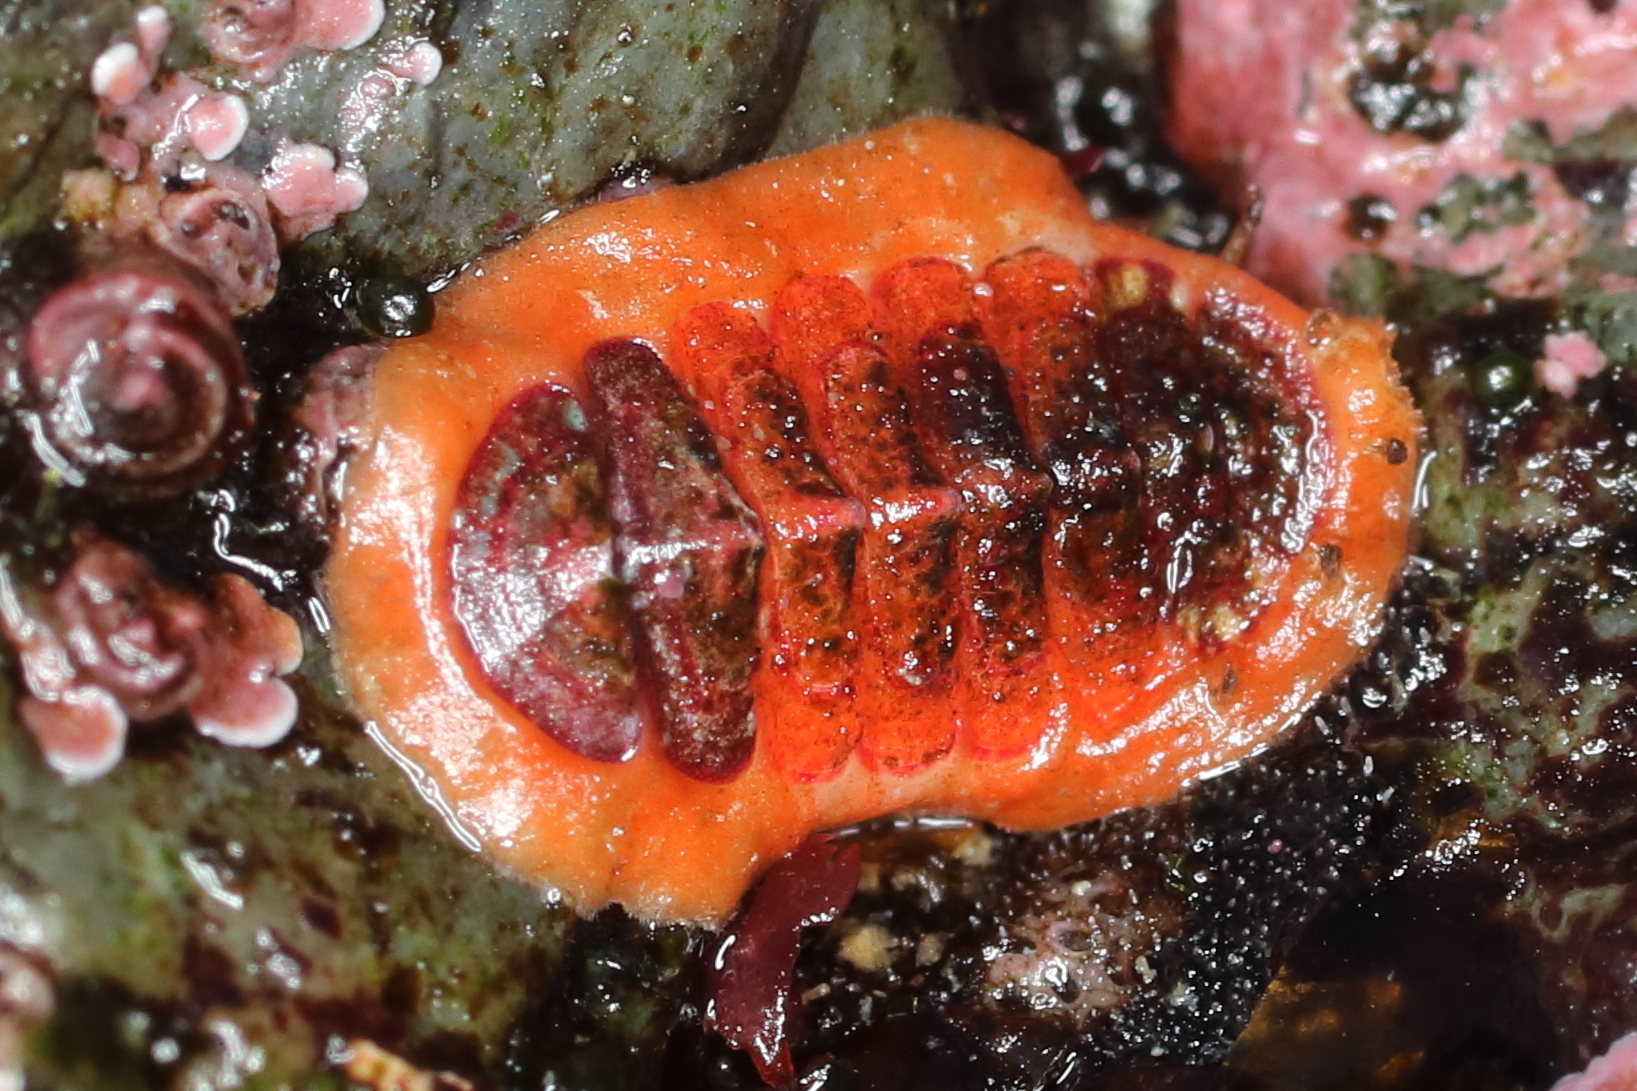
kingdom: Animalia
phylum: Mollusca
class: Polyplacophora
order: Chitonida
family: Mopaliidae
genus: Dendrochiton
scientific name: Dendrochiton flectens
